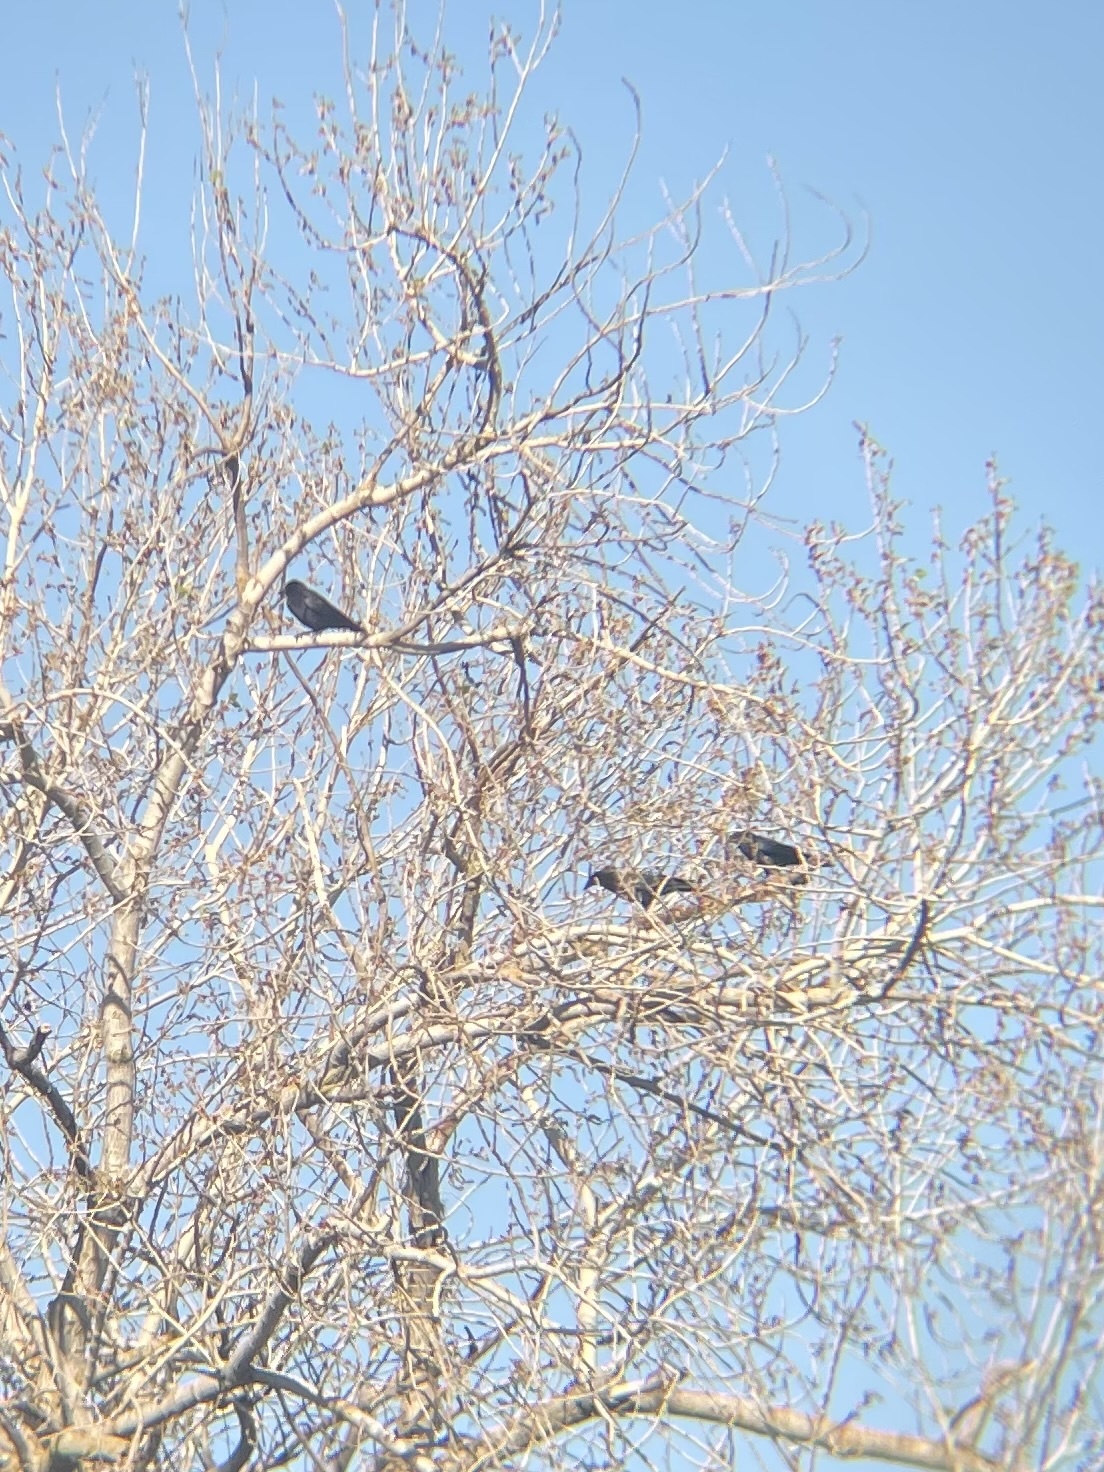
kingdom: Animalia
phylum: Chordata
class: Aves
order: Passeriformes
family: Corvidae
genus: Corvus
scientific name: Corvus brachyrhynchos
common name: American crow
